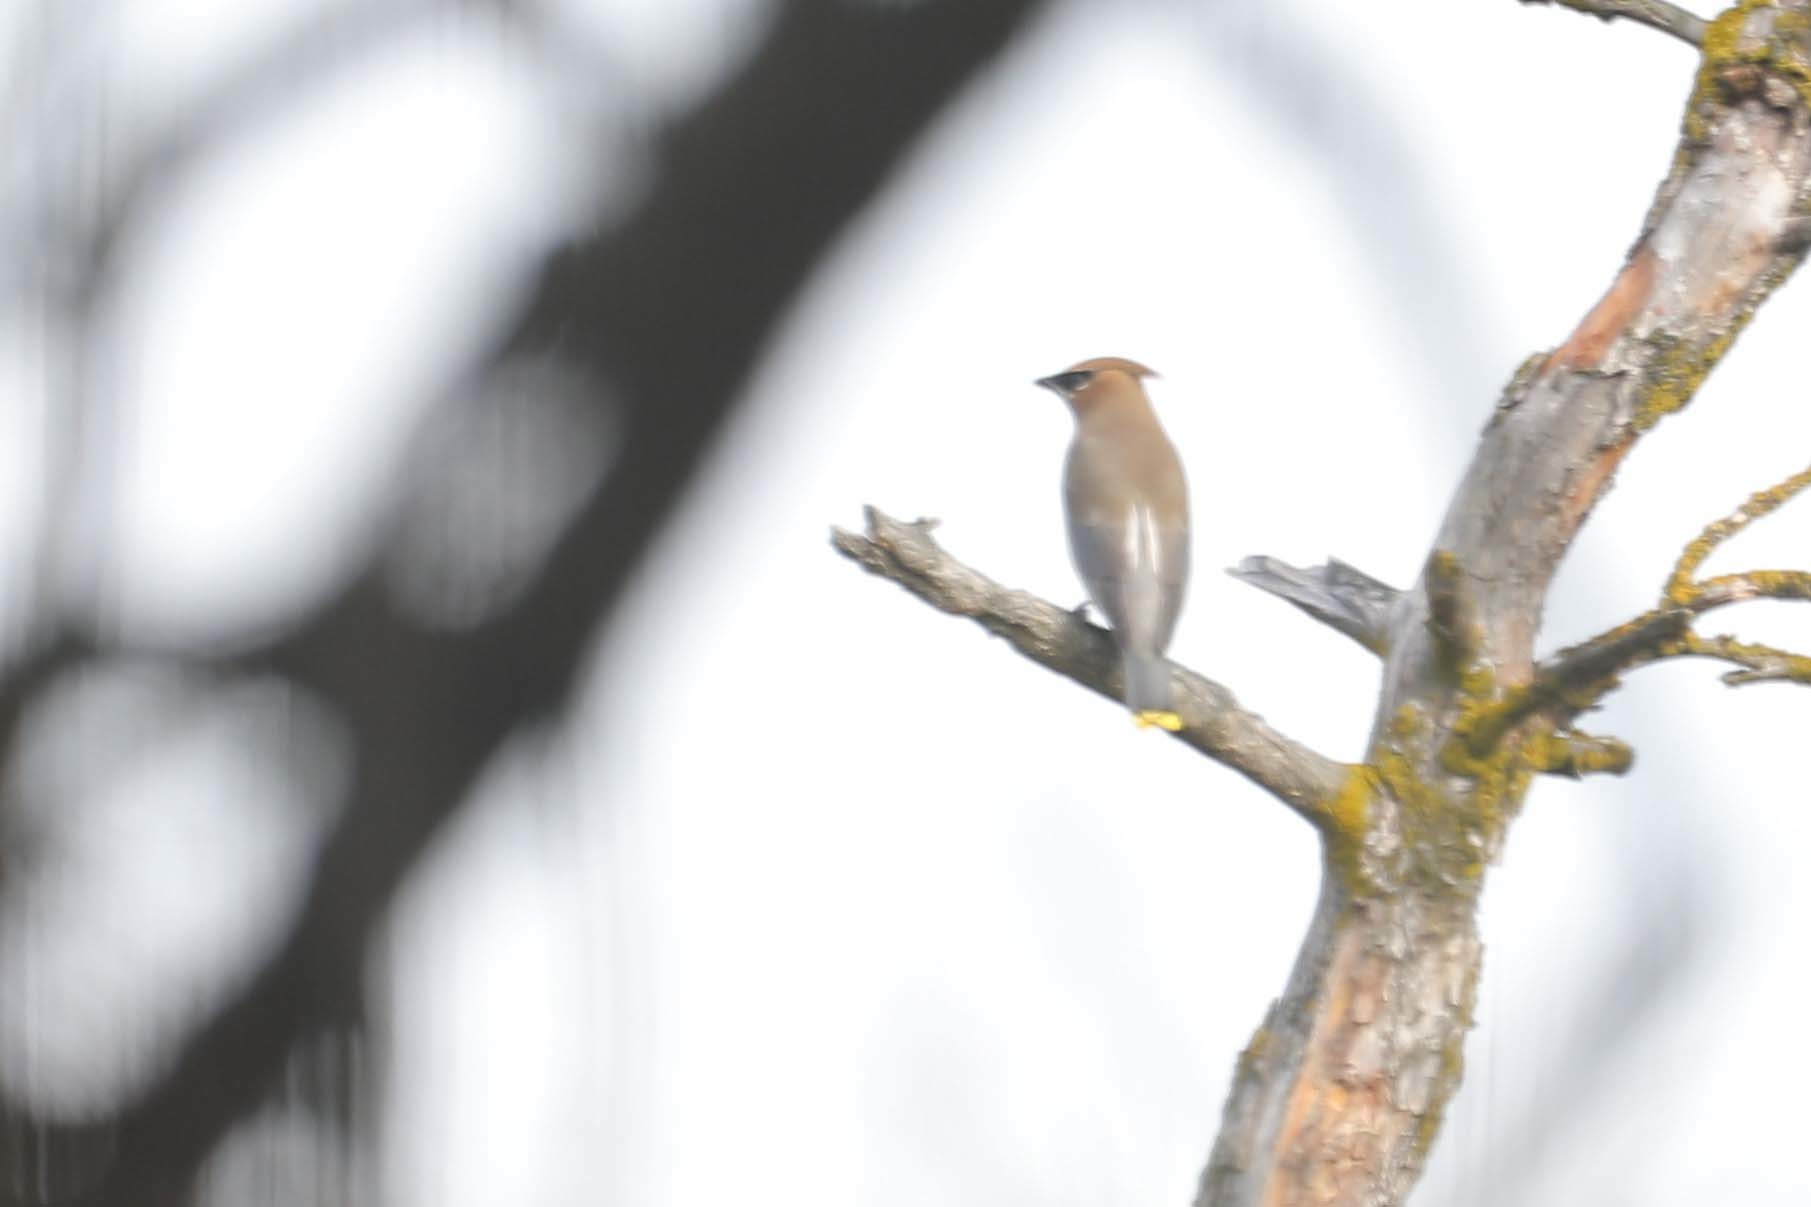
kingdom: Animalia
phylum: Chordata
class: Aves
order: Passeriformes
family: Bombycillidae
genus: Bombycilla
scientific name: Bombycilla cedrorum
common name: Cedar waxwing
